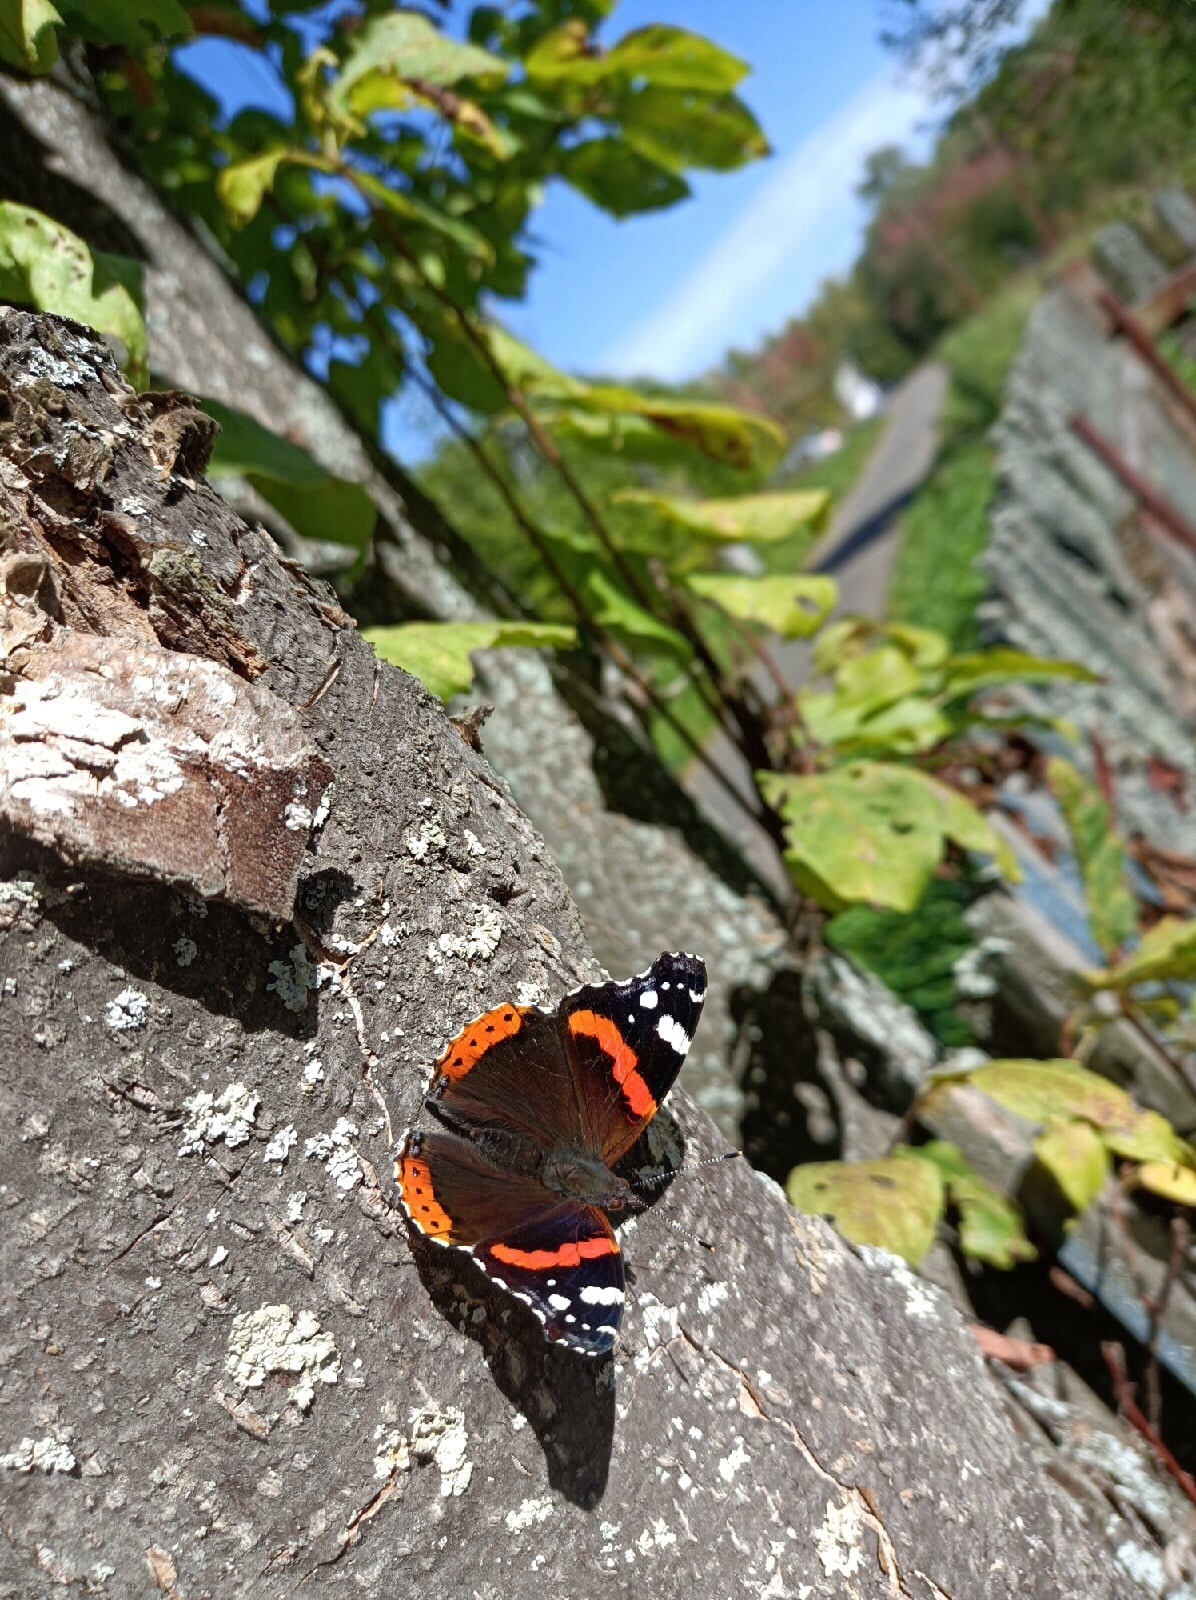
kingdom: Animalia
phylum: Arthropoda
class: Insecta
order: Lepidoptera
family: Nymphalidae
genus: Vanessa
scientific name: Vanessa atalanta
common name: Red admiral
